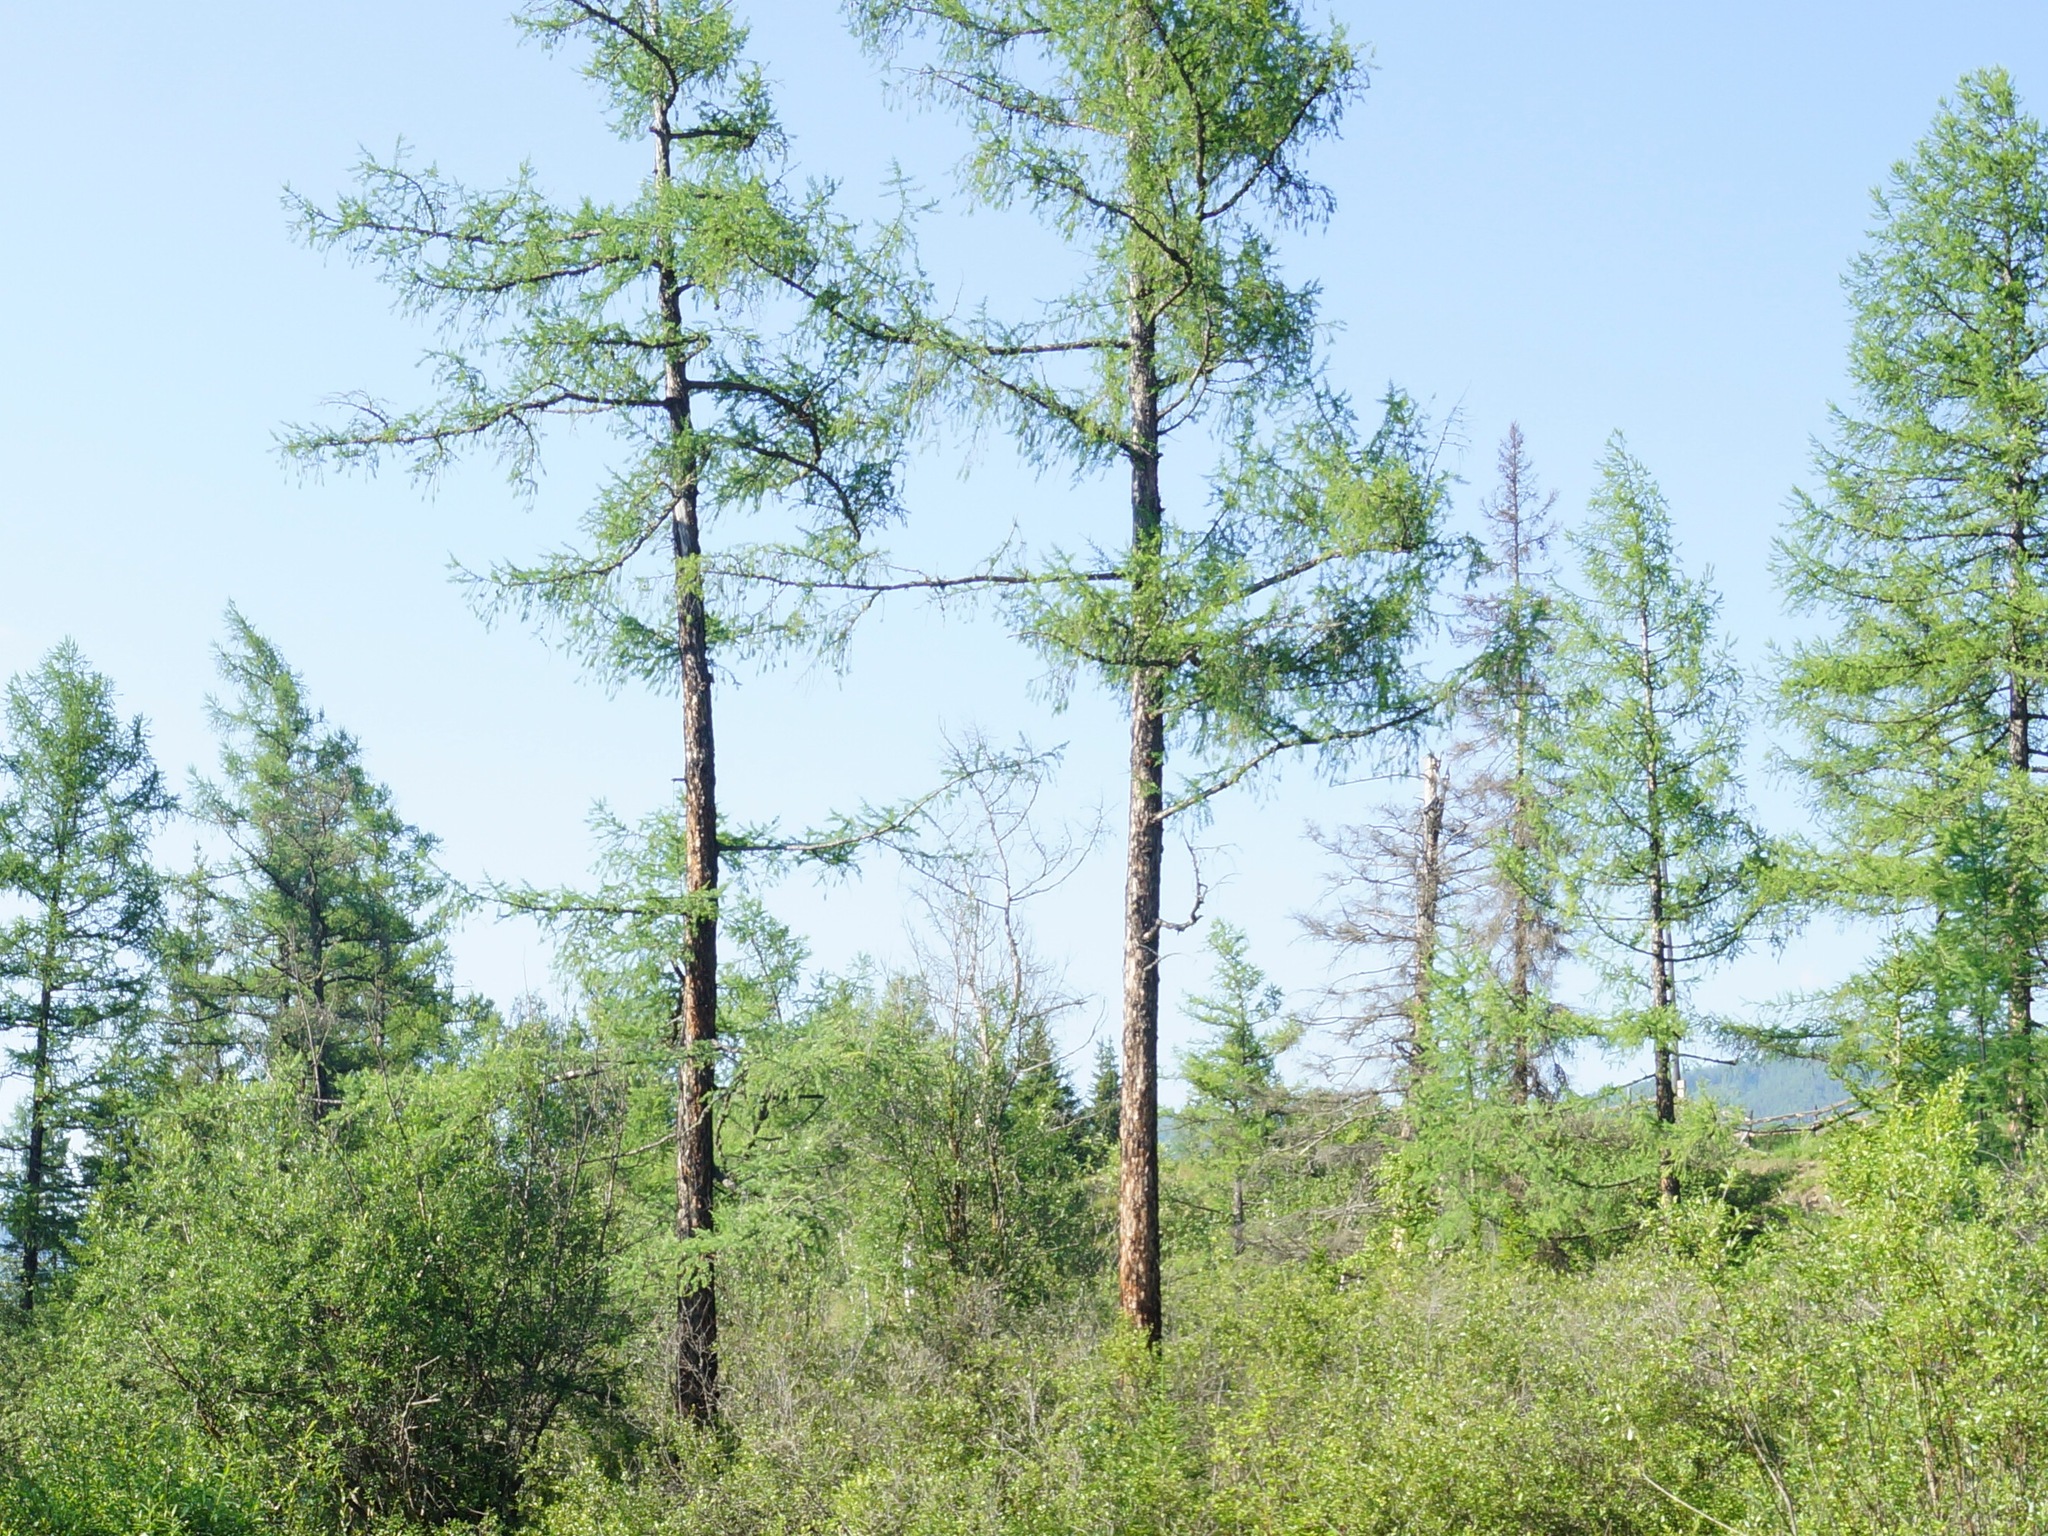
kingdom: Plantae
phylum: Tracheophyta
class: Pinopsida
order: Pinales
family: Pinaceae
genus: Larix
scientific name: Larix sibirica
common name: Siberian larch
